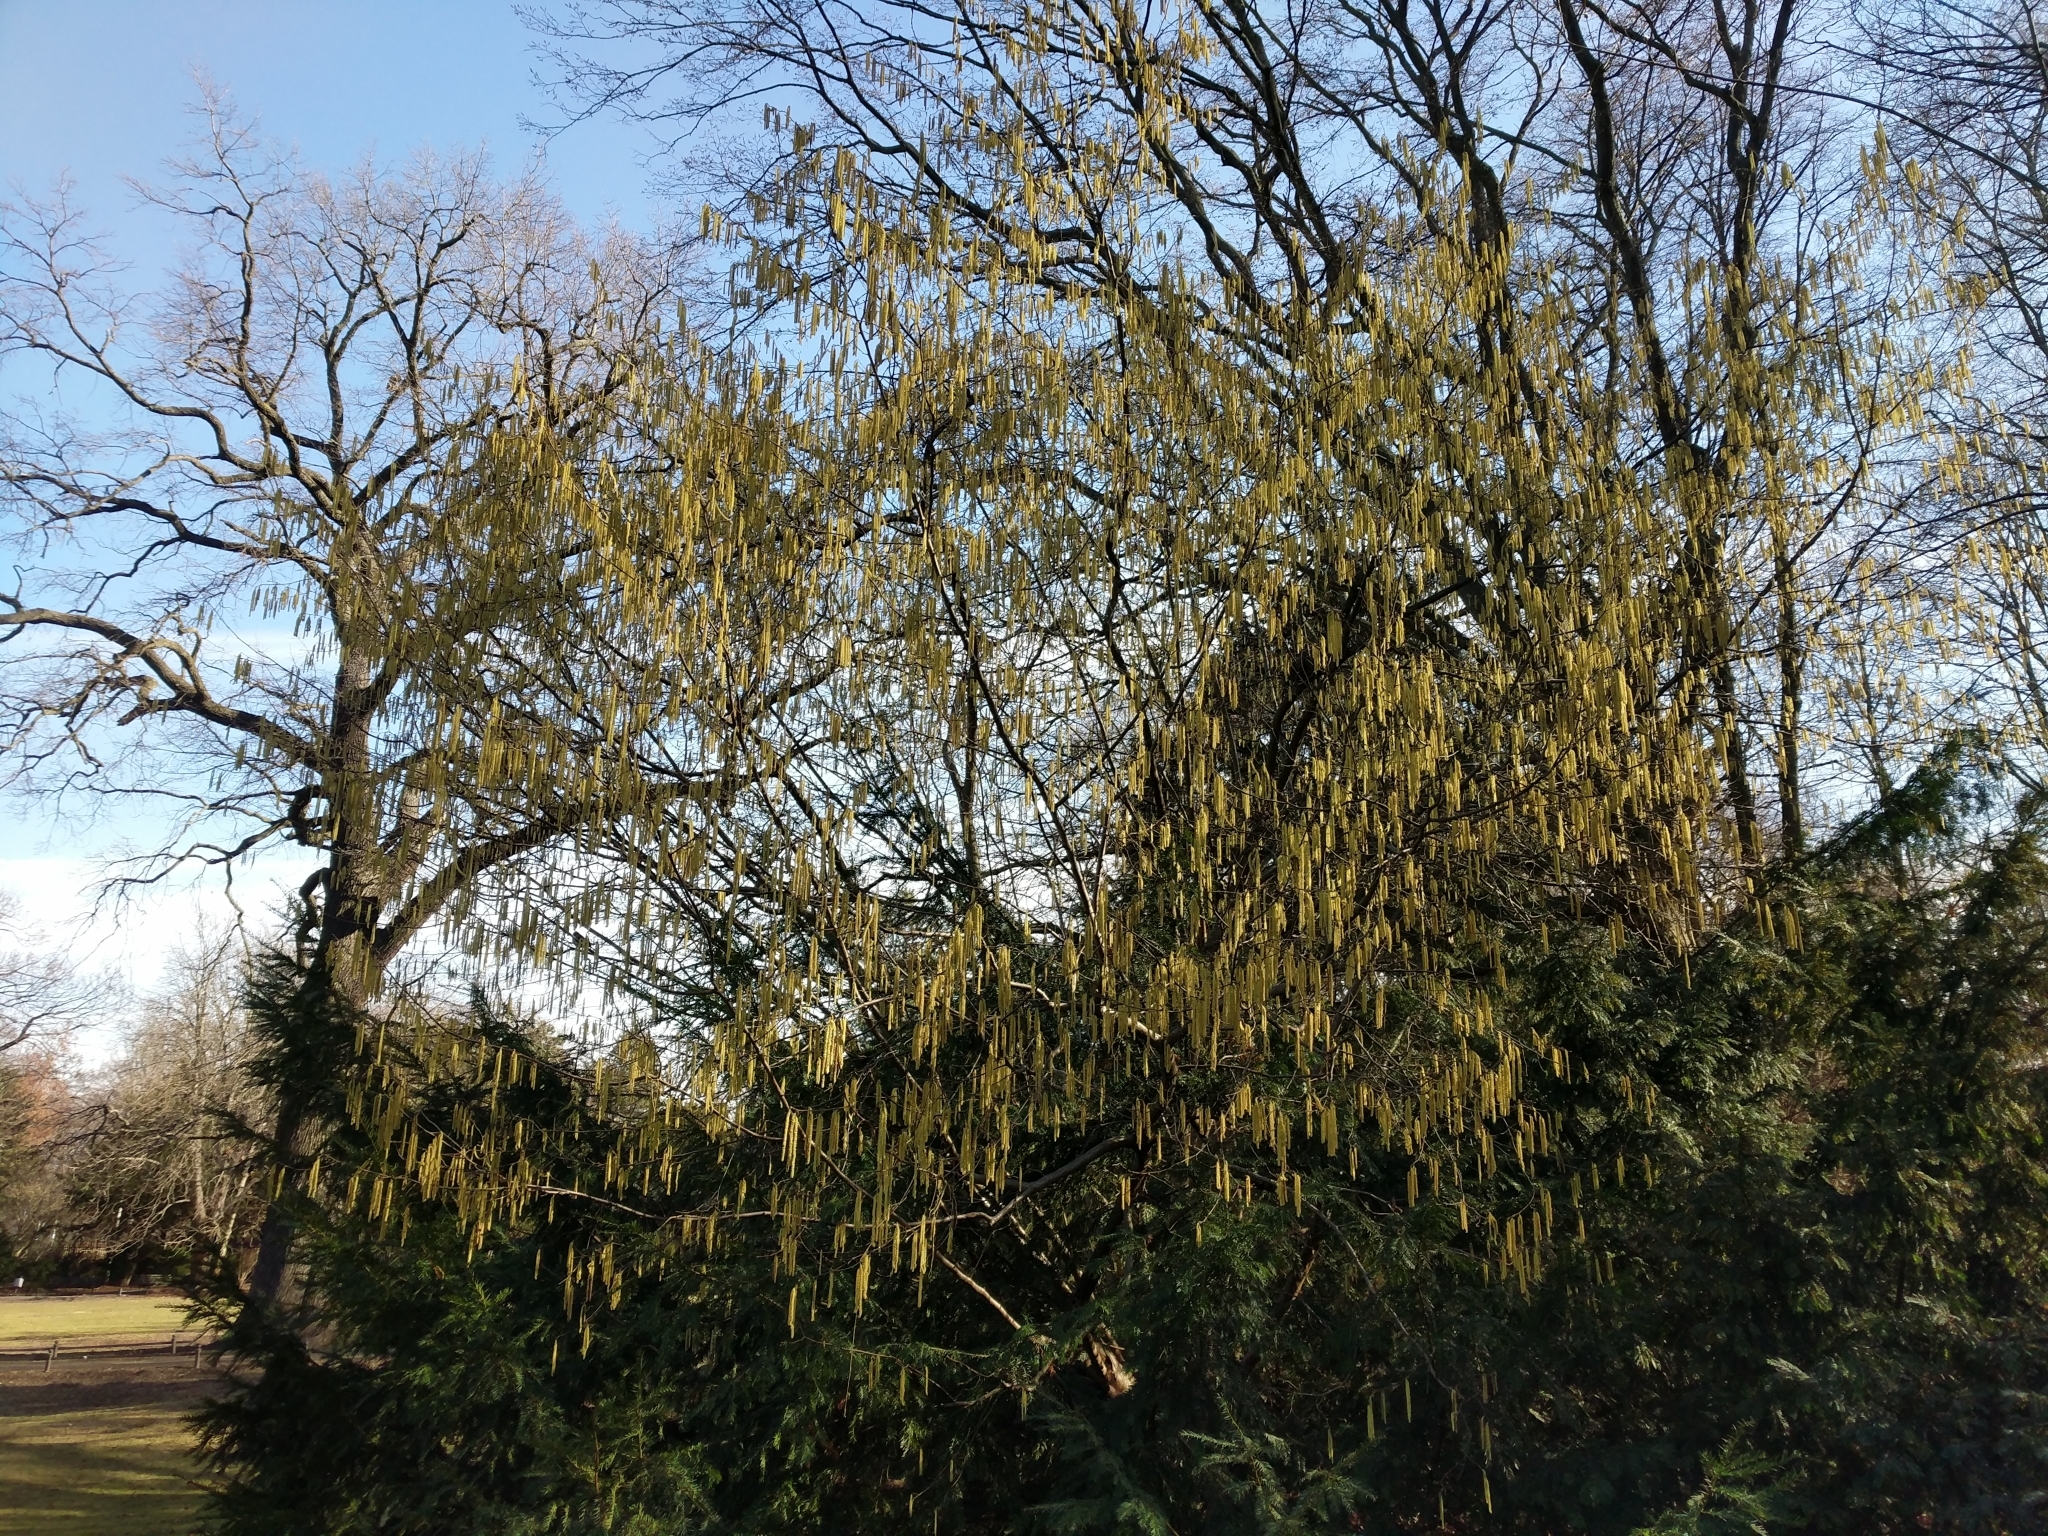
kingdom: Plantae
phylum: Tracheophyta
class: Magnoliopsida
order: Fagales
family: Betulaceae
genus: Corylus
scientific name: Corylus avellana
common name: European hazel
